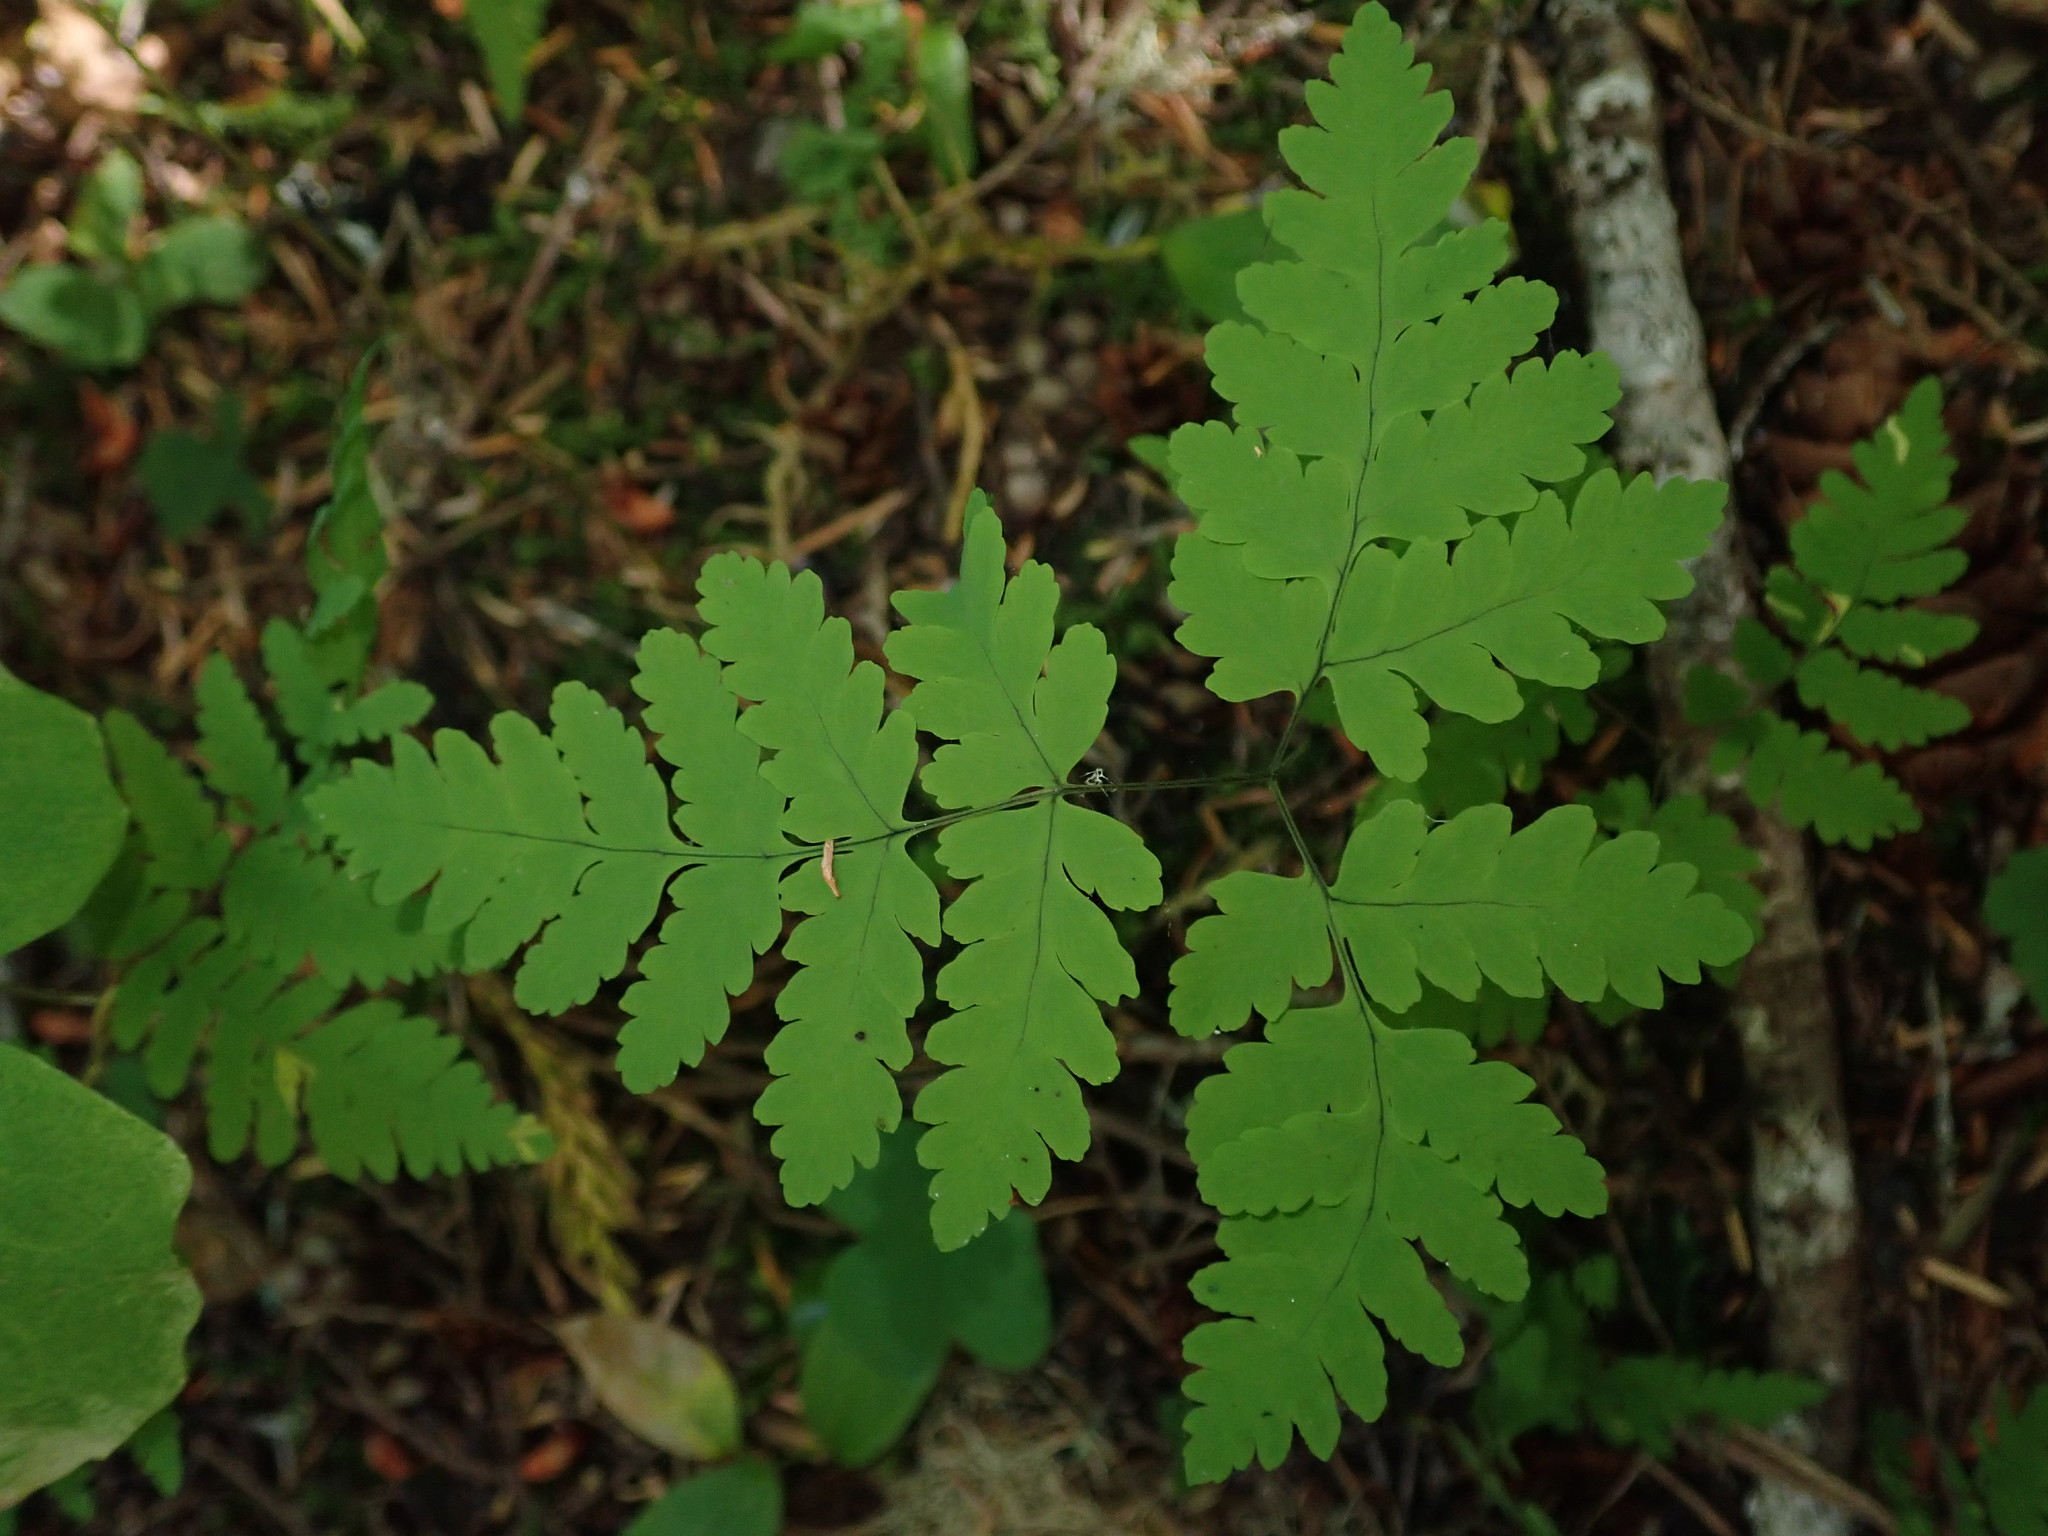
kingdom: Plantae
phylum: Tracheophyta
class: Polypodiopsida
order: Polypodiales
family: Cystopteridaceae
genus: Gymnocarpium
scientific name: Gymnocarpium disjunctum
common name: Western oak fern
